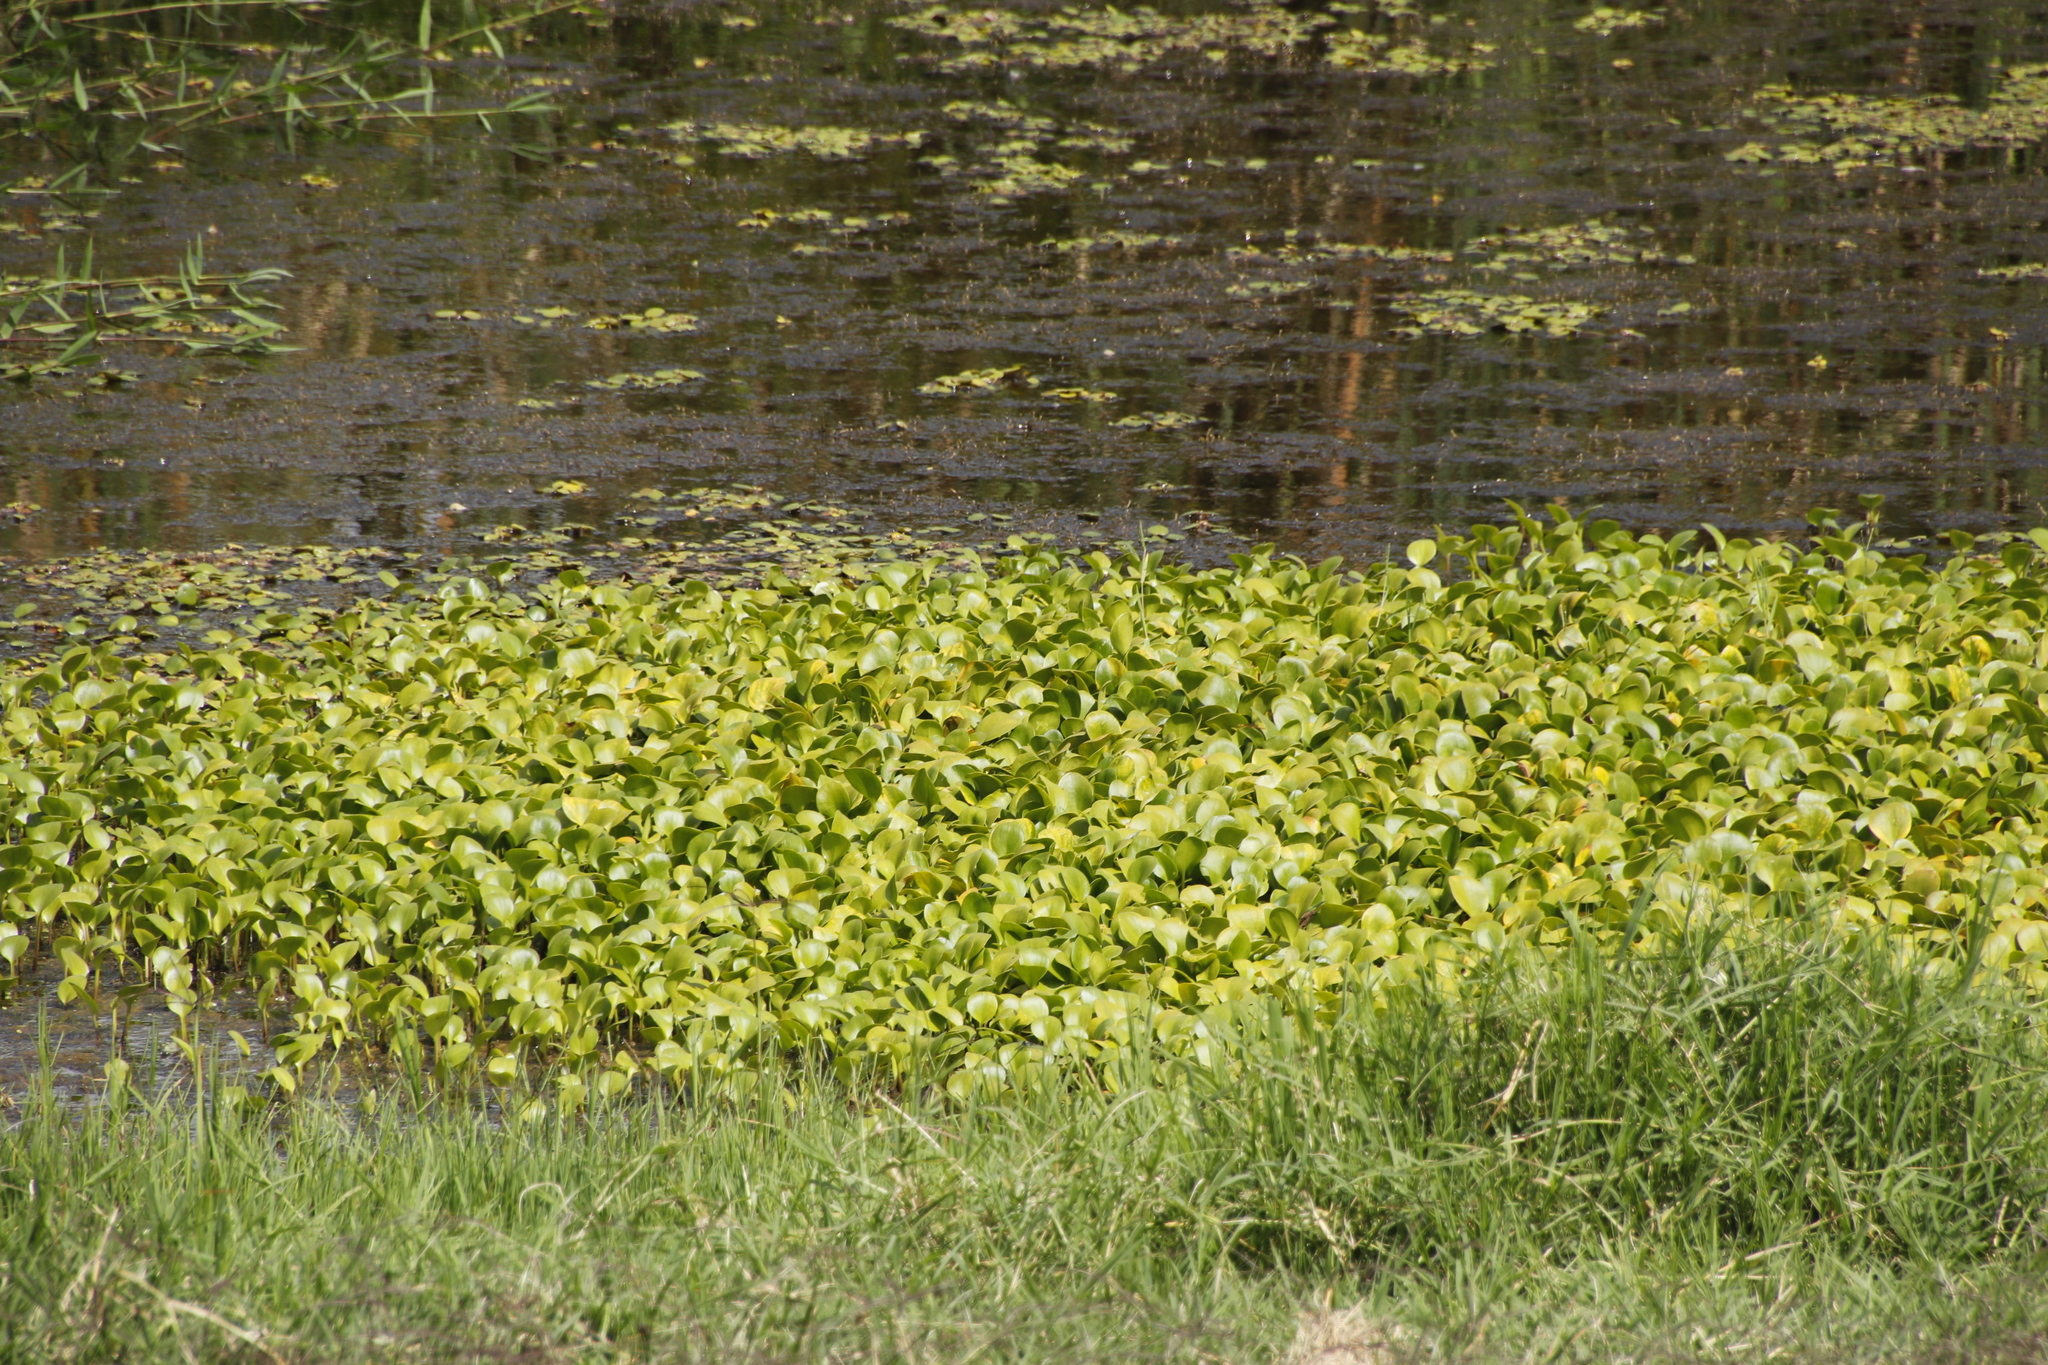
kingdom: Plantae
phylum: Tracheophyta
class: Liliopsida
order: Commelinales
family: Pontederiaceae
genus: Pontederia
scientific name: Pontederia crassipes
